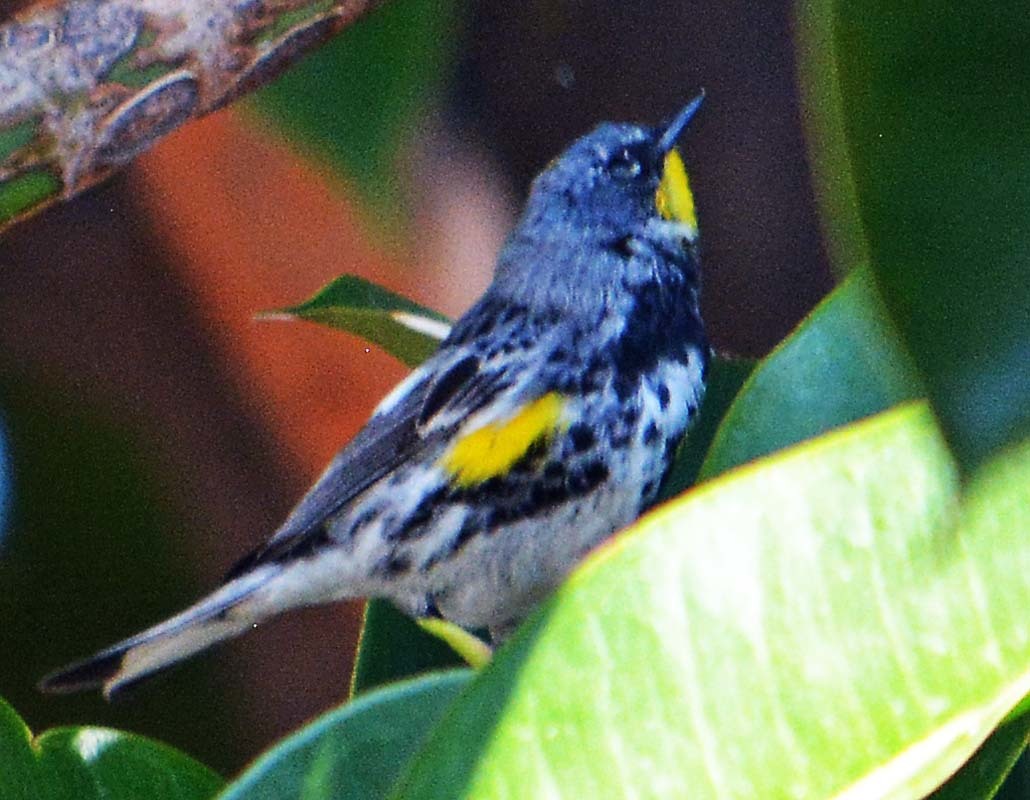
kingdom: Animalia
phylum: Chordata
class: Aves
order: Passeriformes
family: Parulidae
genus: Setophaga
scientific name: Setophaga auduboni
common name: Audubon's warbler
